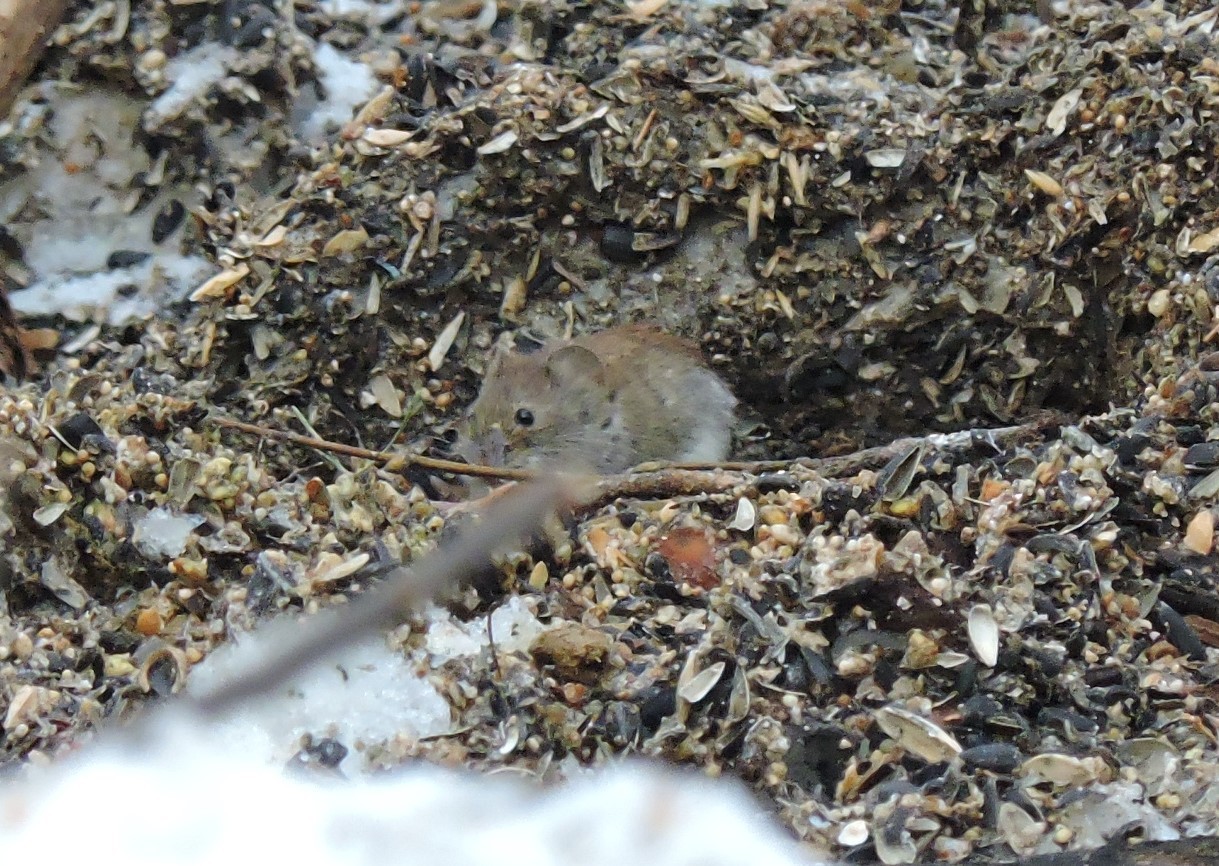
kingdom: Animalia
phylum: Chordata
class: Mammalia
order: Rodentia
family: Cricetidae
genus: Myodes
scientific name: Myodes glareolus
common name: Bank vole
